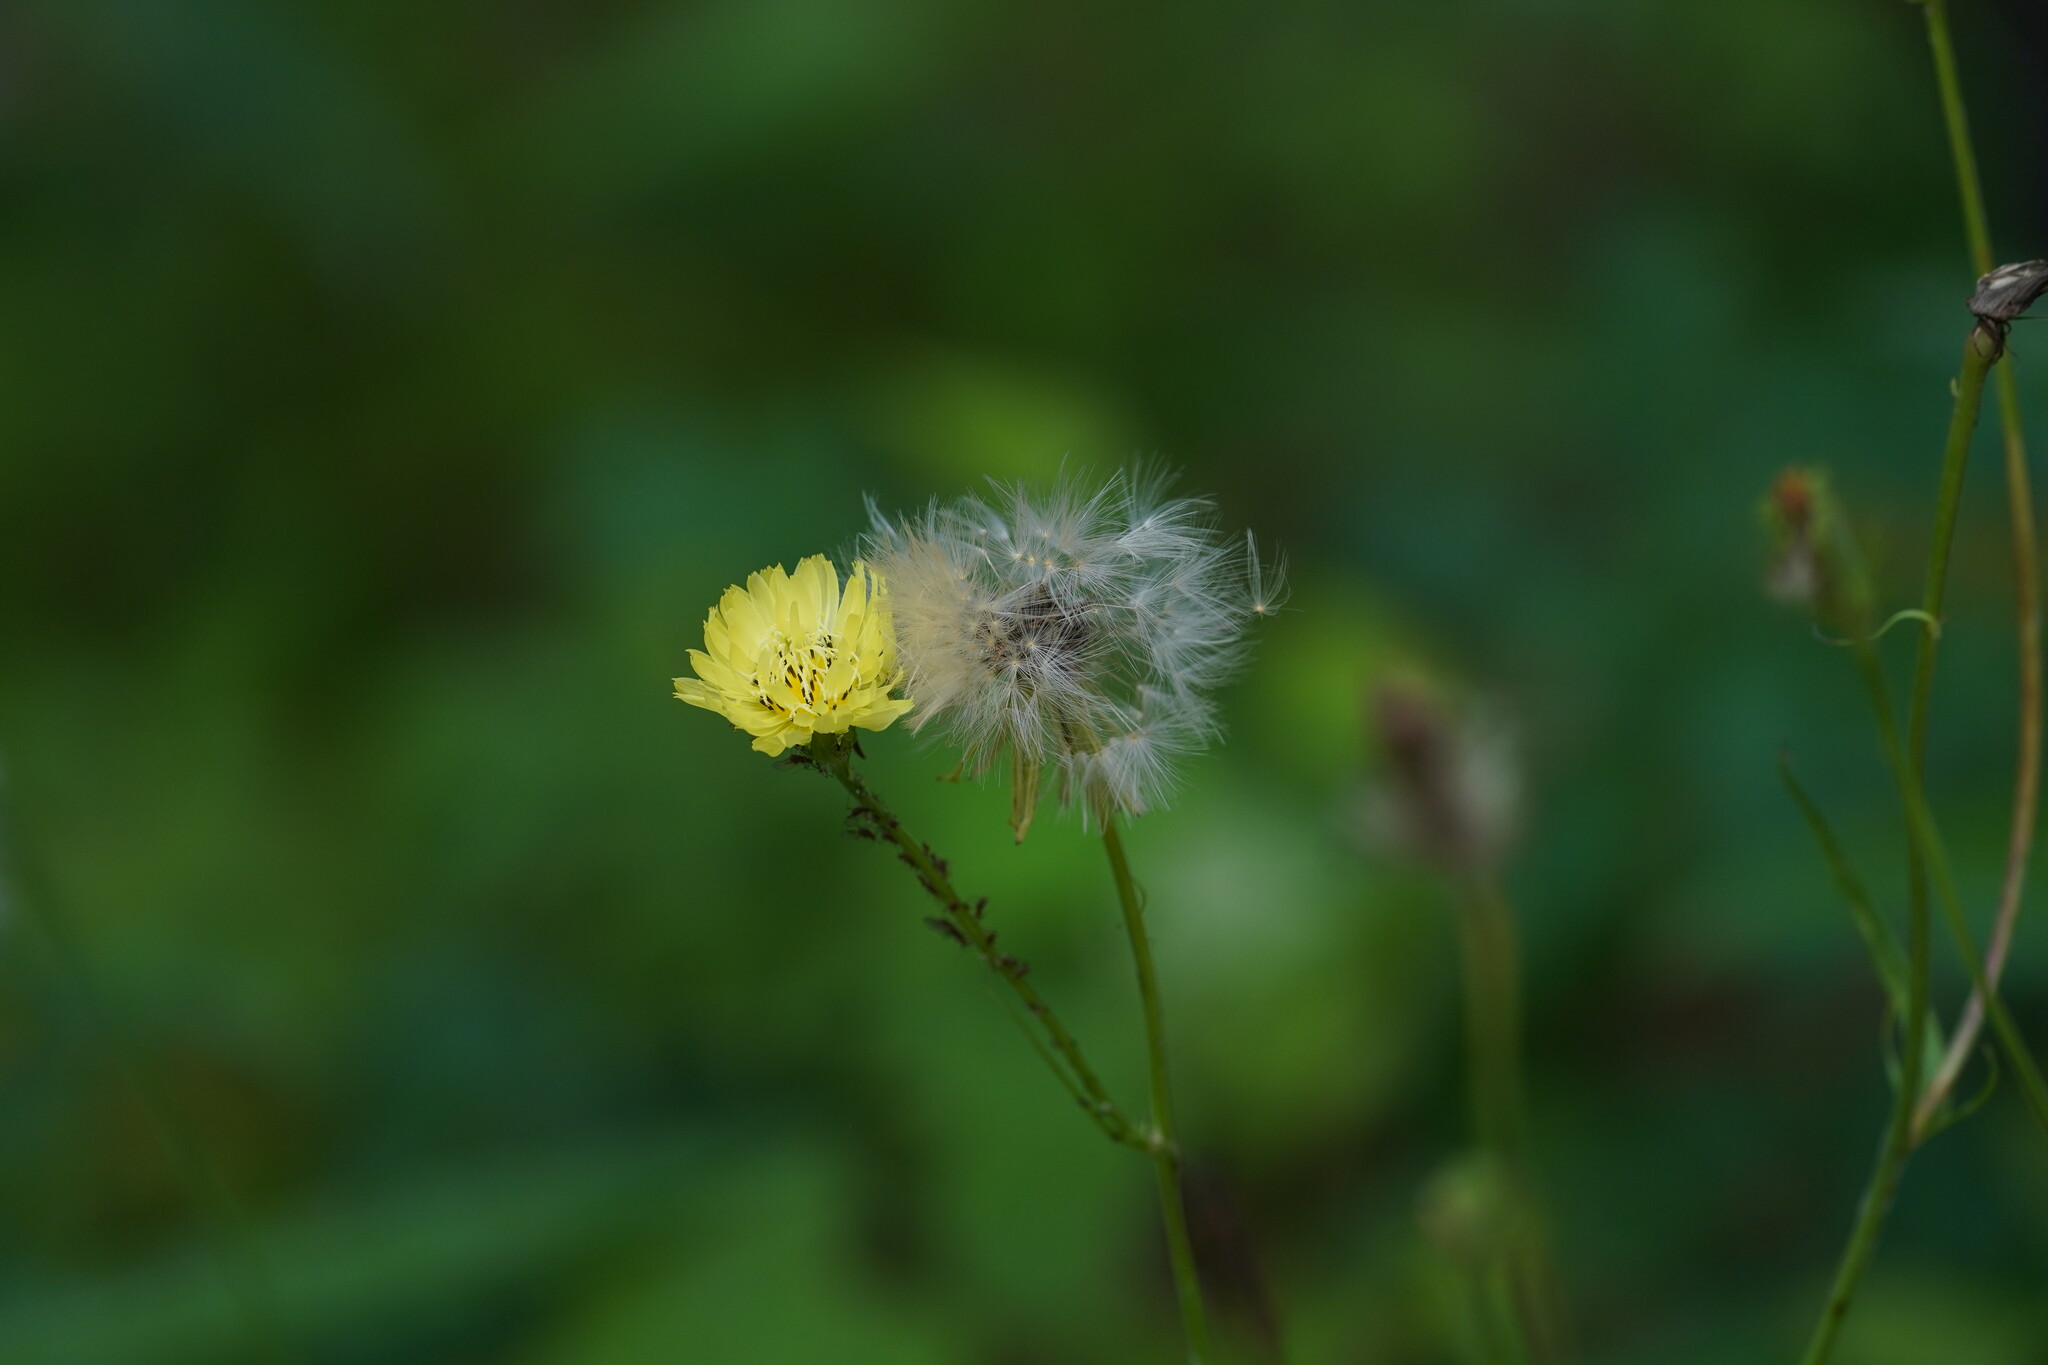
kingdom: Plantae
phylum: Tracheophyta
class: Magnoliopsida
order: Asterales
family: Asteraceae
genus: Pyrrhopappus
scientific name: Pyrrhopappus carolinianus
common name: Carolina desert-chicory
